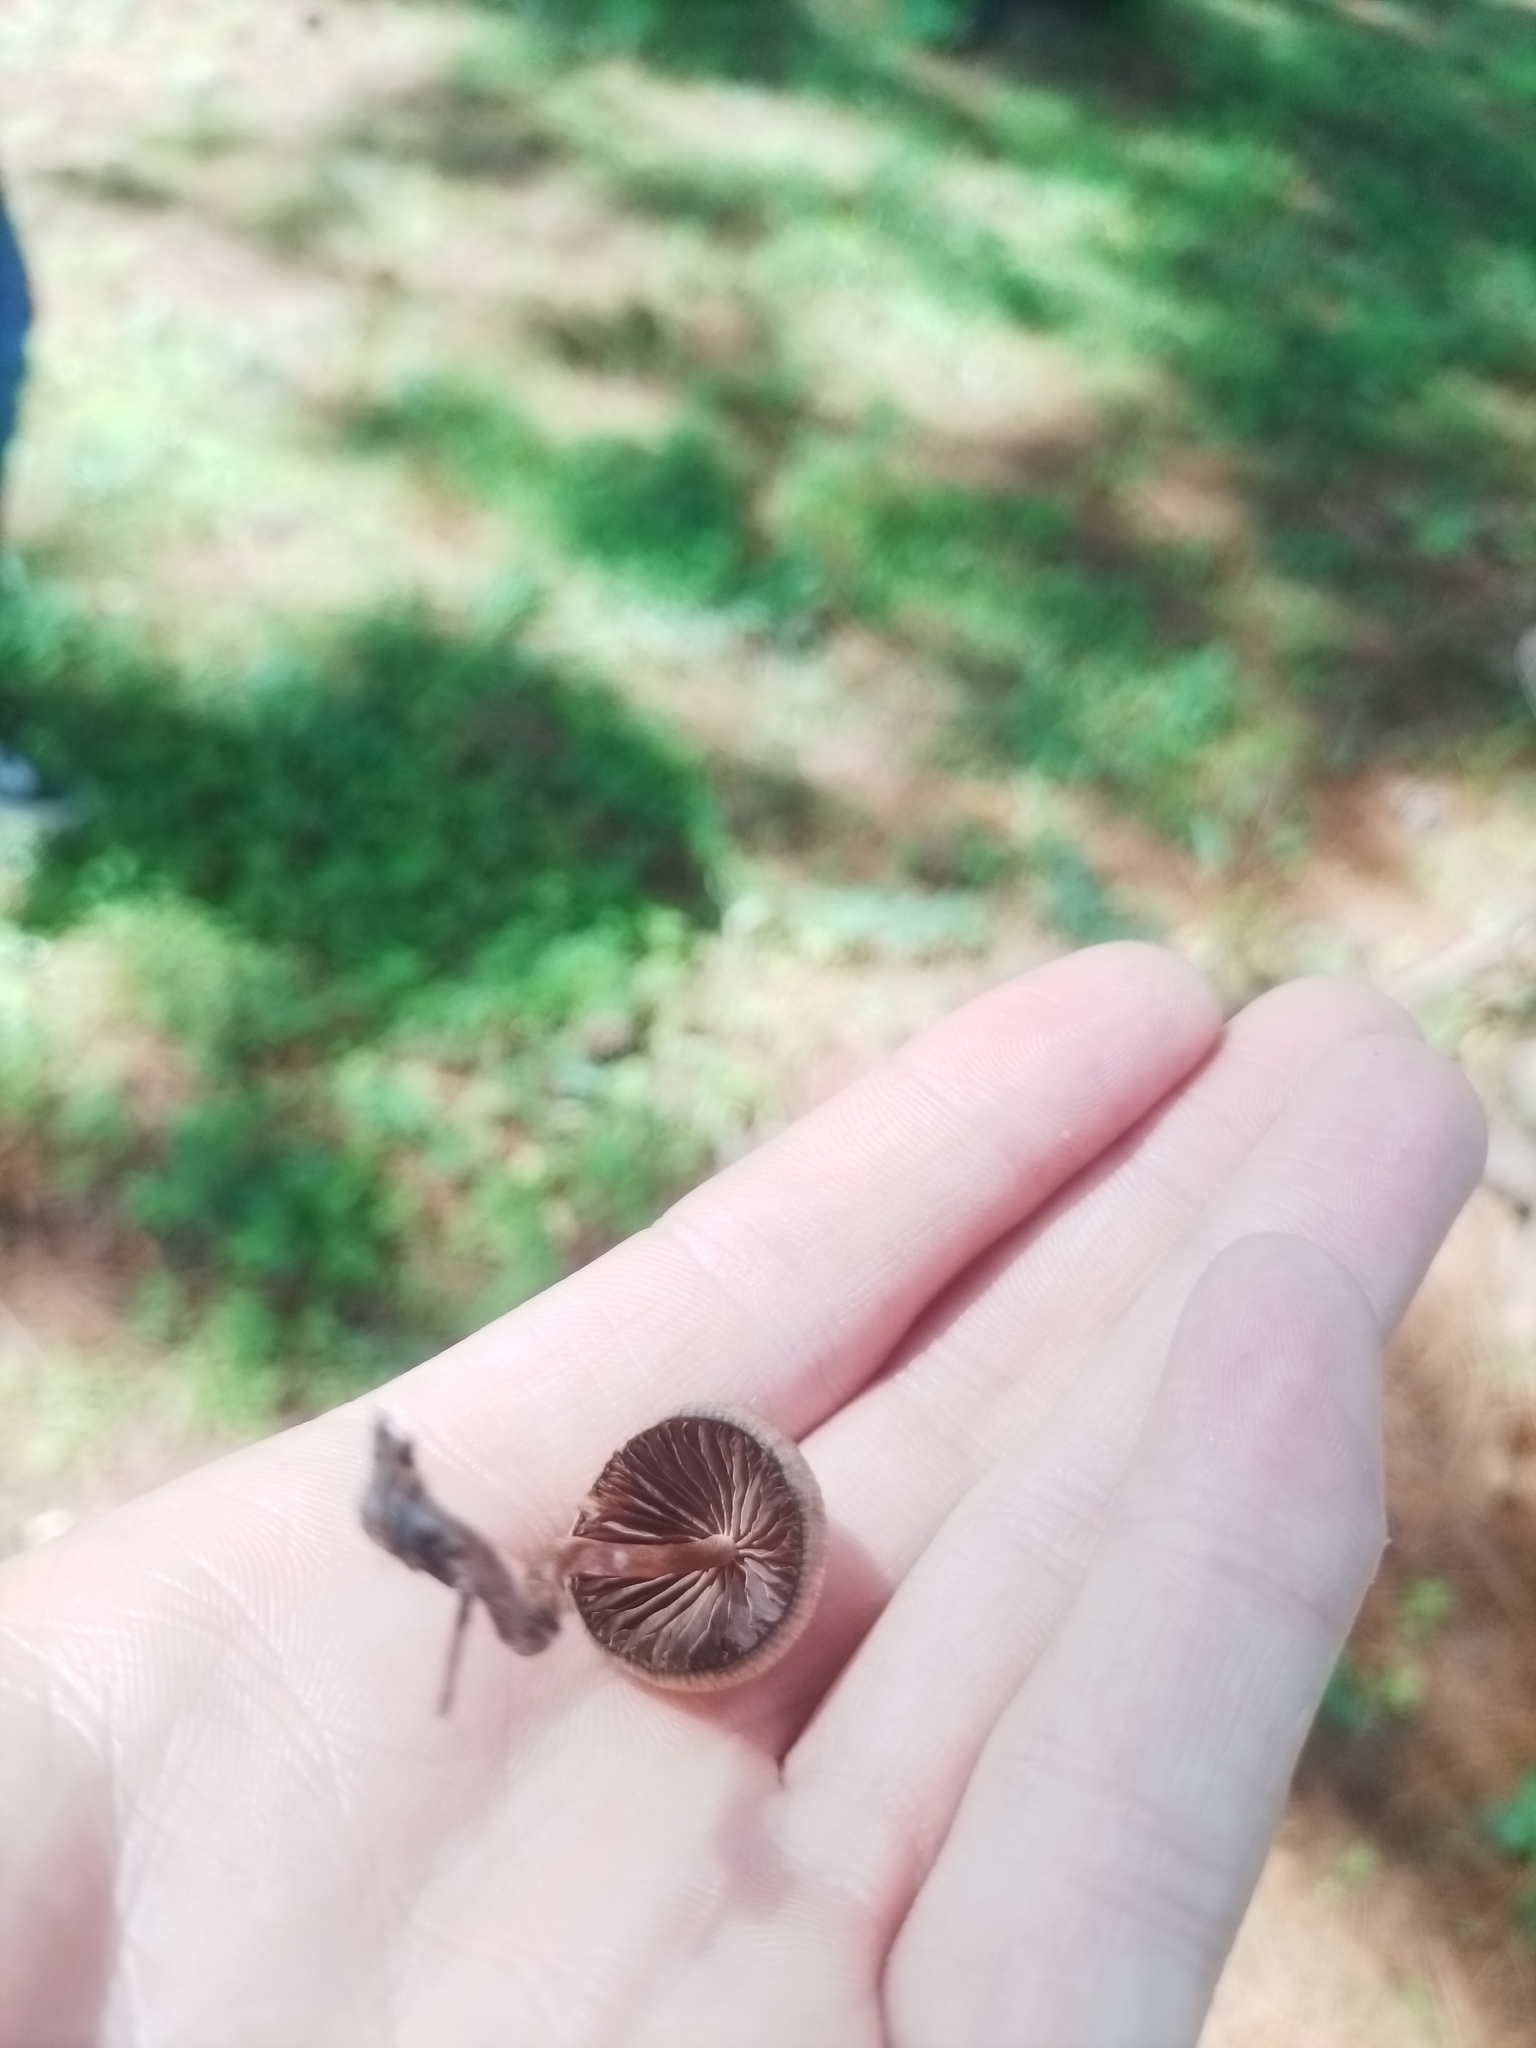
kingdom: Fungi
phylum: Basidiomycota
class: Agaricomycetes
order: Agaricales
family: Hymenogastraceae
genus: Psilocybe
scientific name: Psilocybe mexicana
